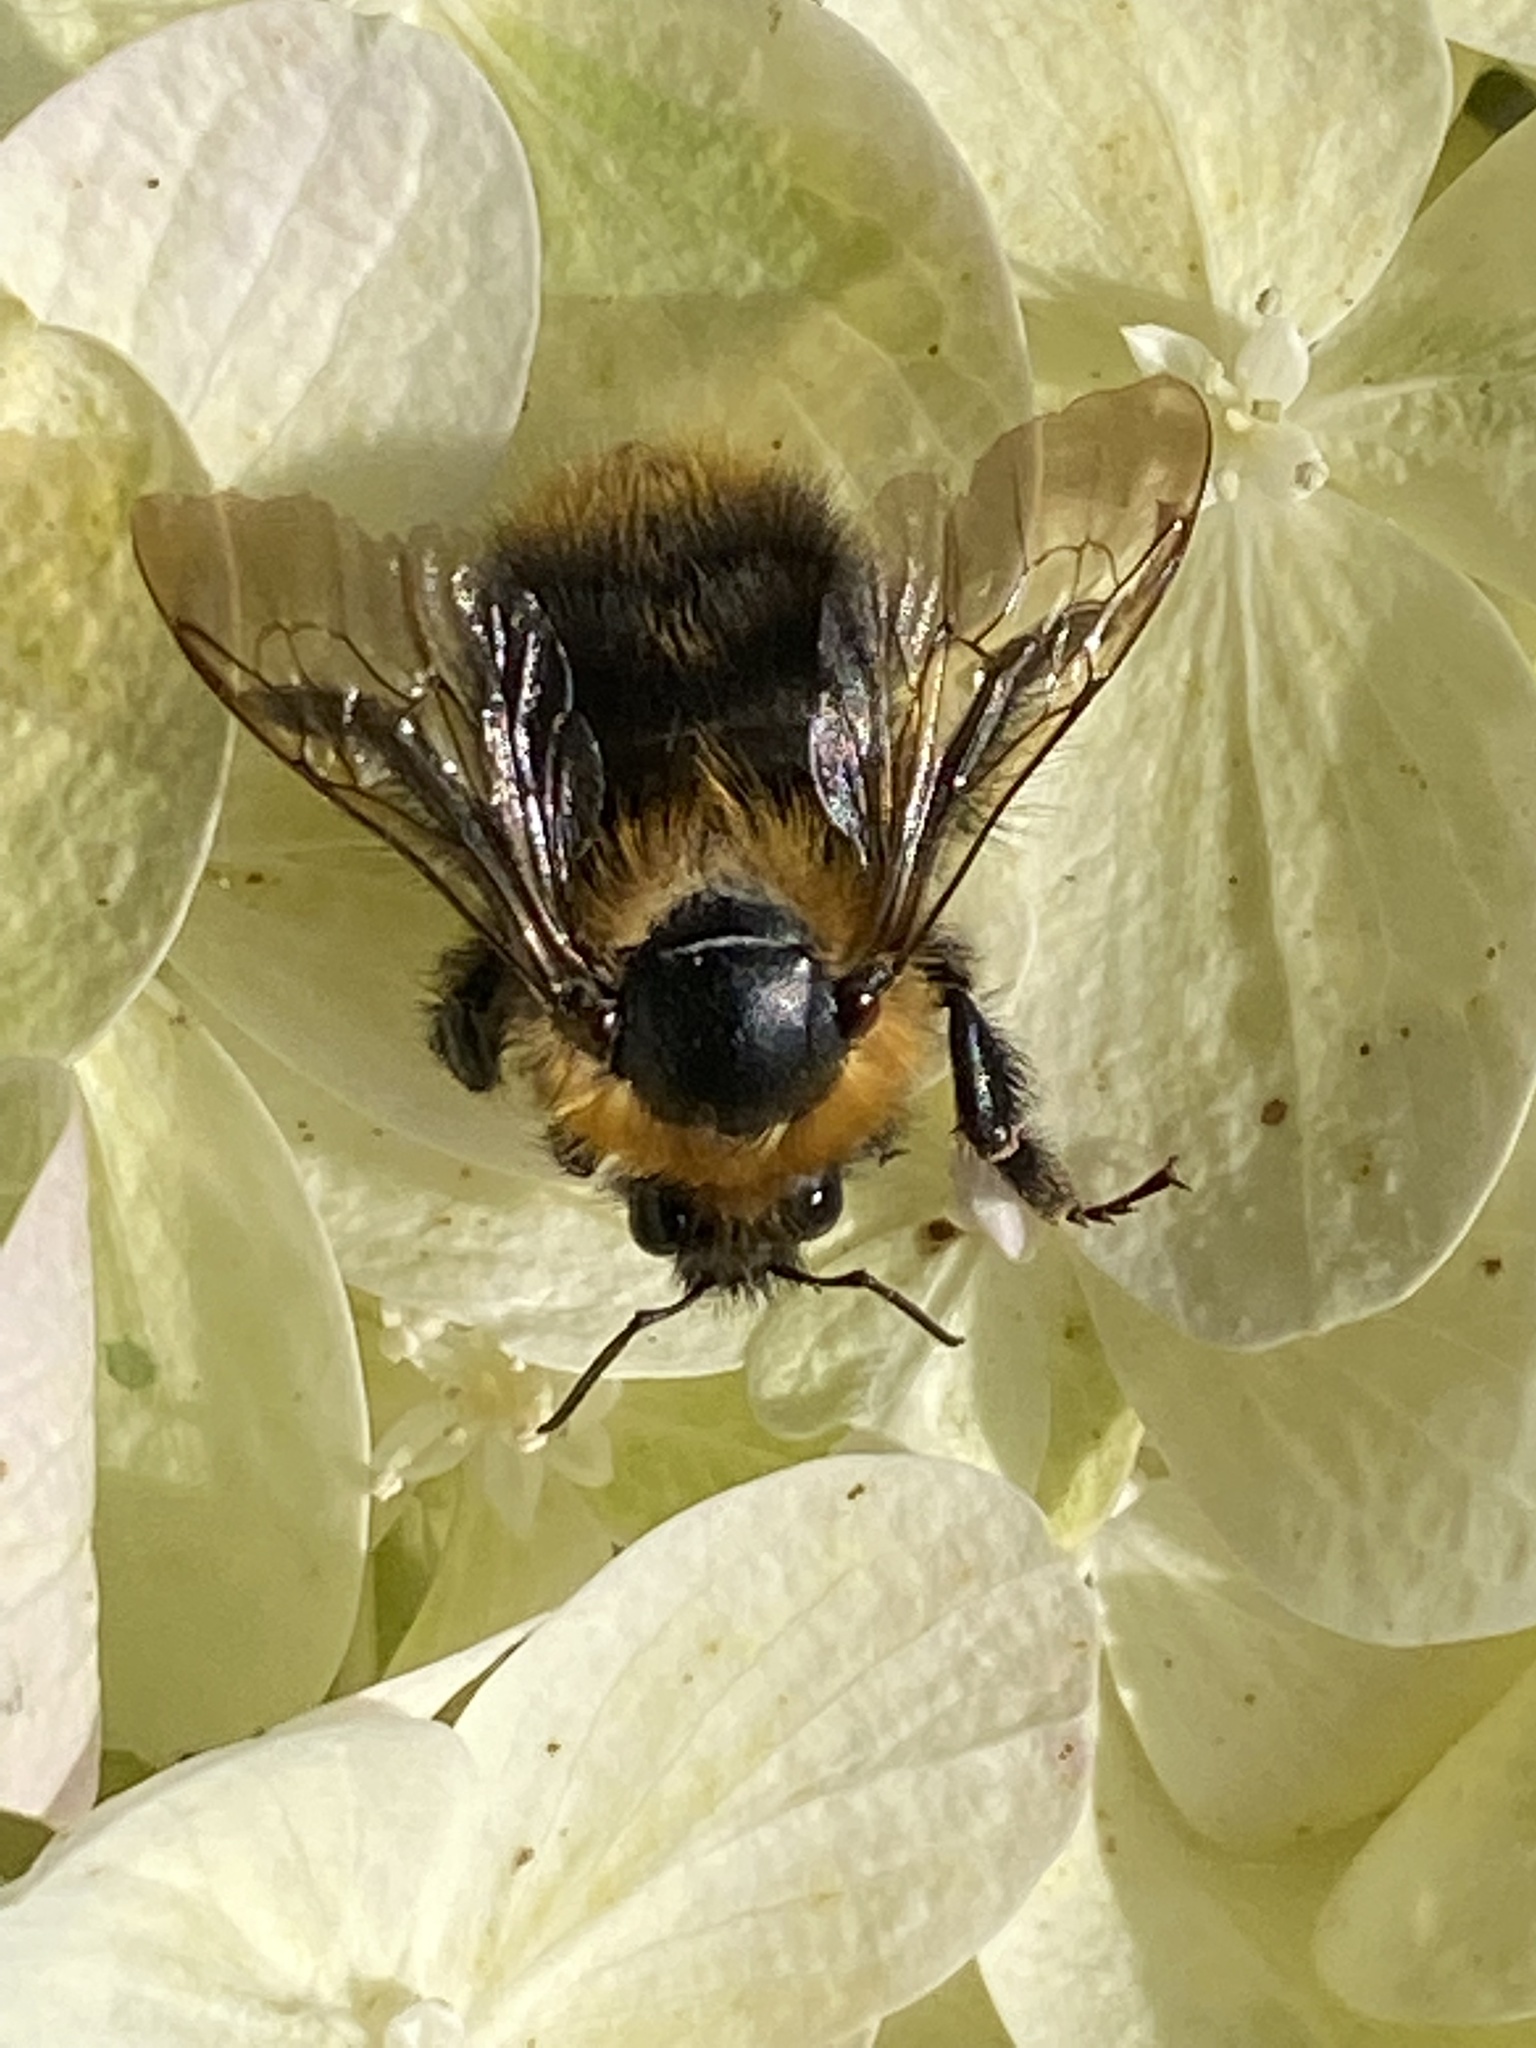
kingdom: Animalia
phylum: Arthropoda
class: Insecta
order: Hymenoptera
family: Apidae
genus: Bombus
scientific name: Bombus pascuorum
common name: Common carder bee
